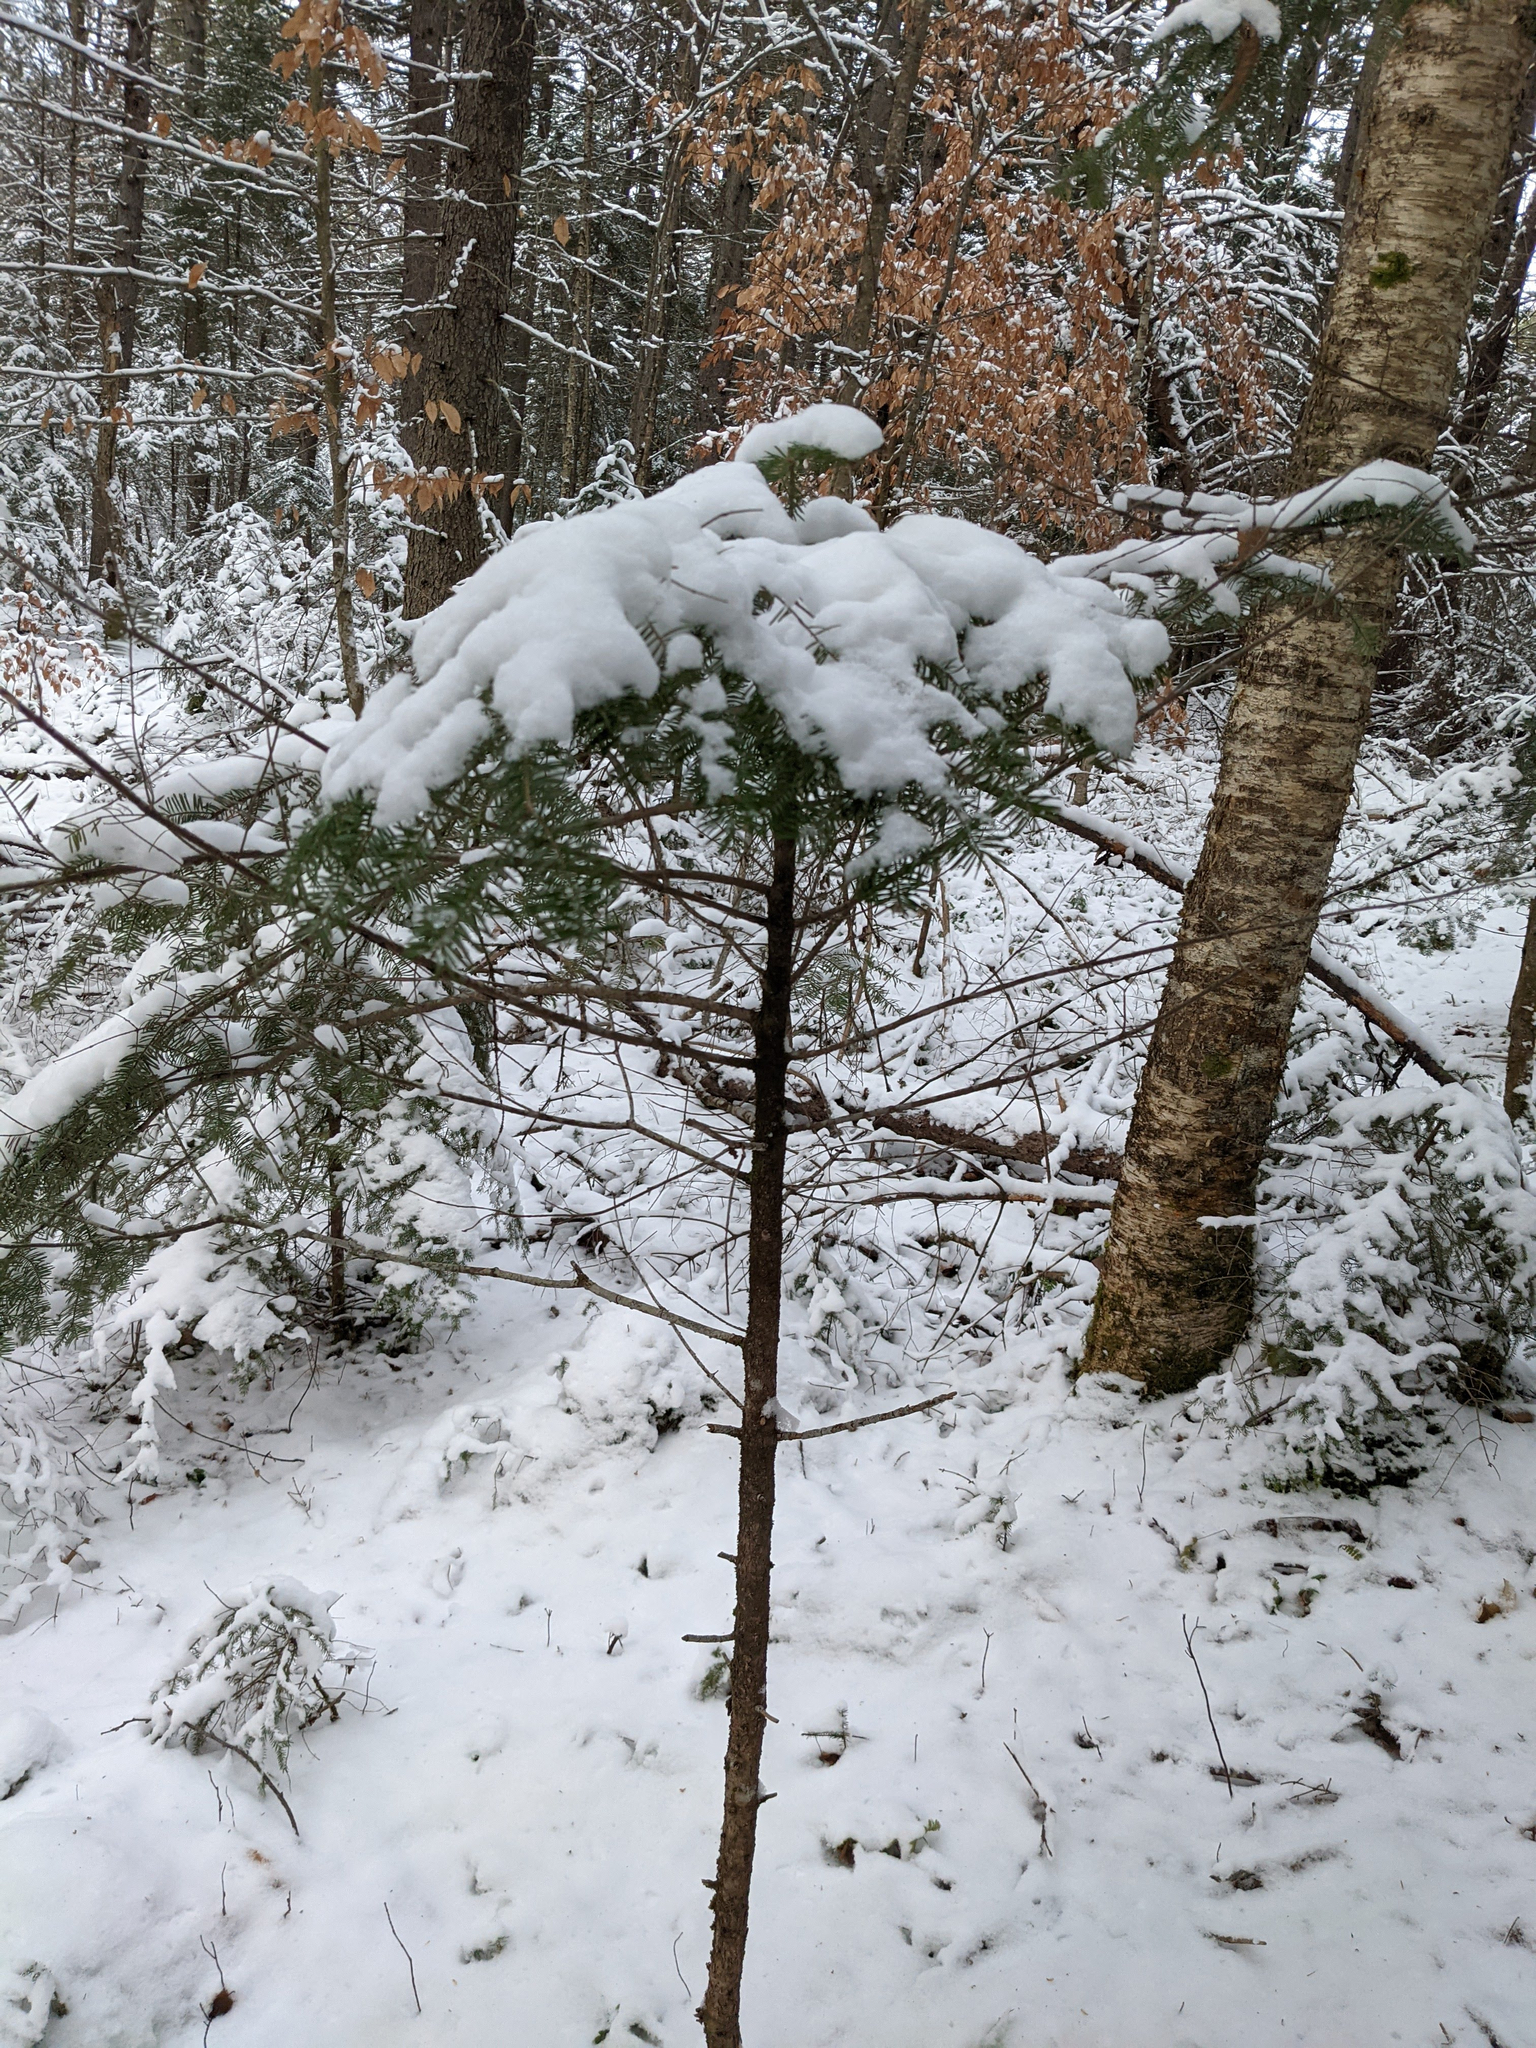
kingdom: Plantae
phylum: Tracheophyta
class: Pinopsida
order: Pinales
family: Pinaceae
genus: Abies
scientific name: Abies balsamea
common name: Balsam fir
